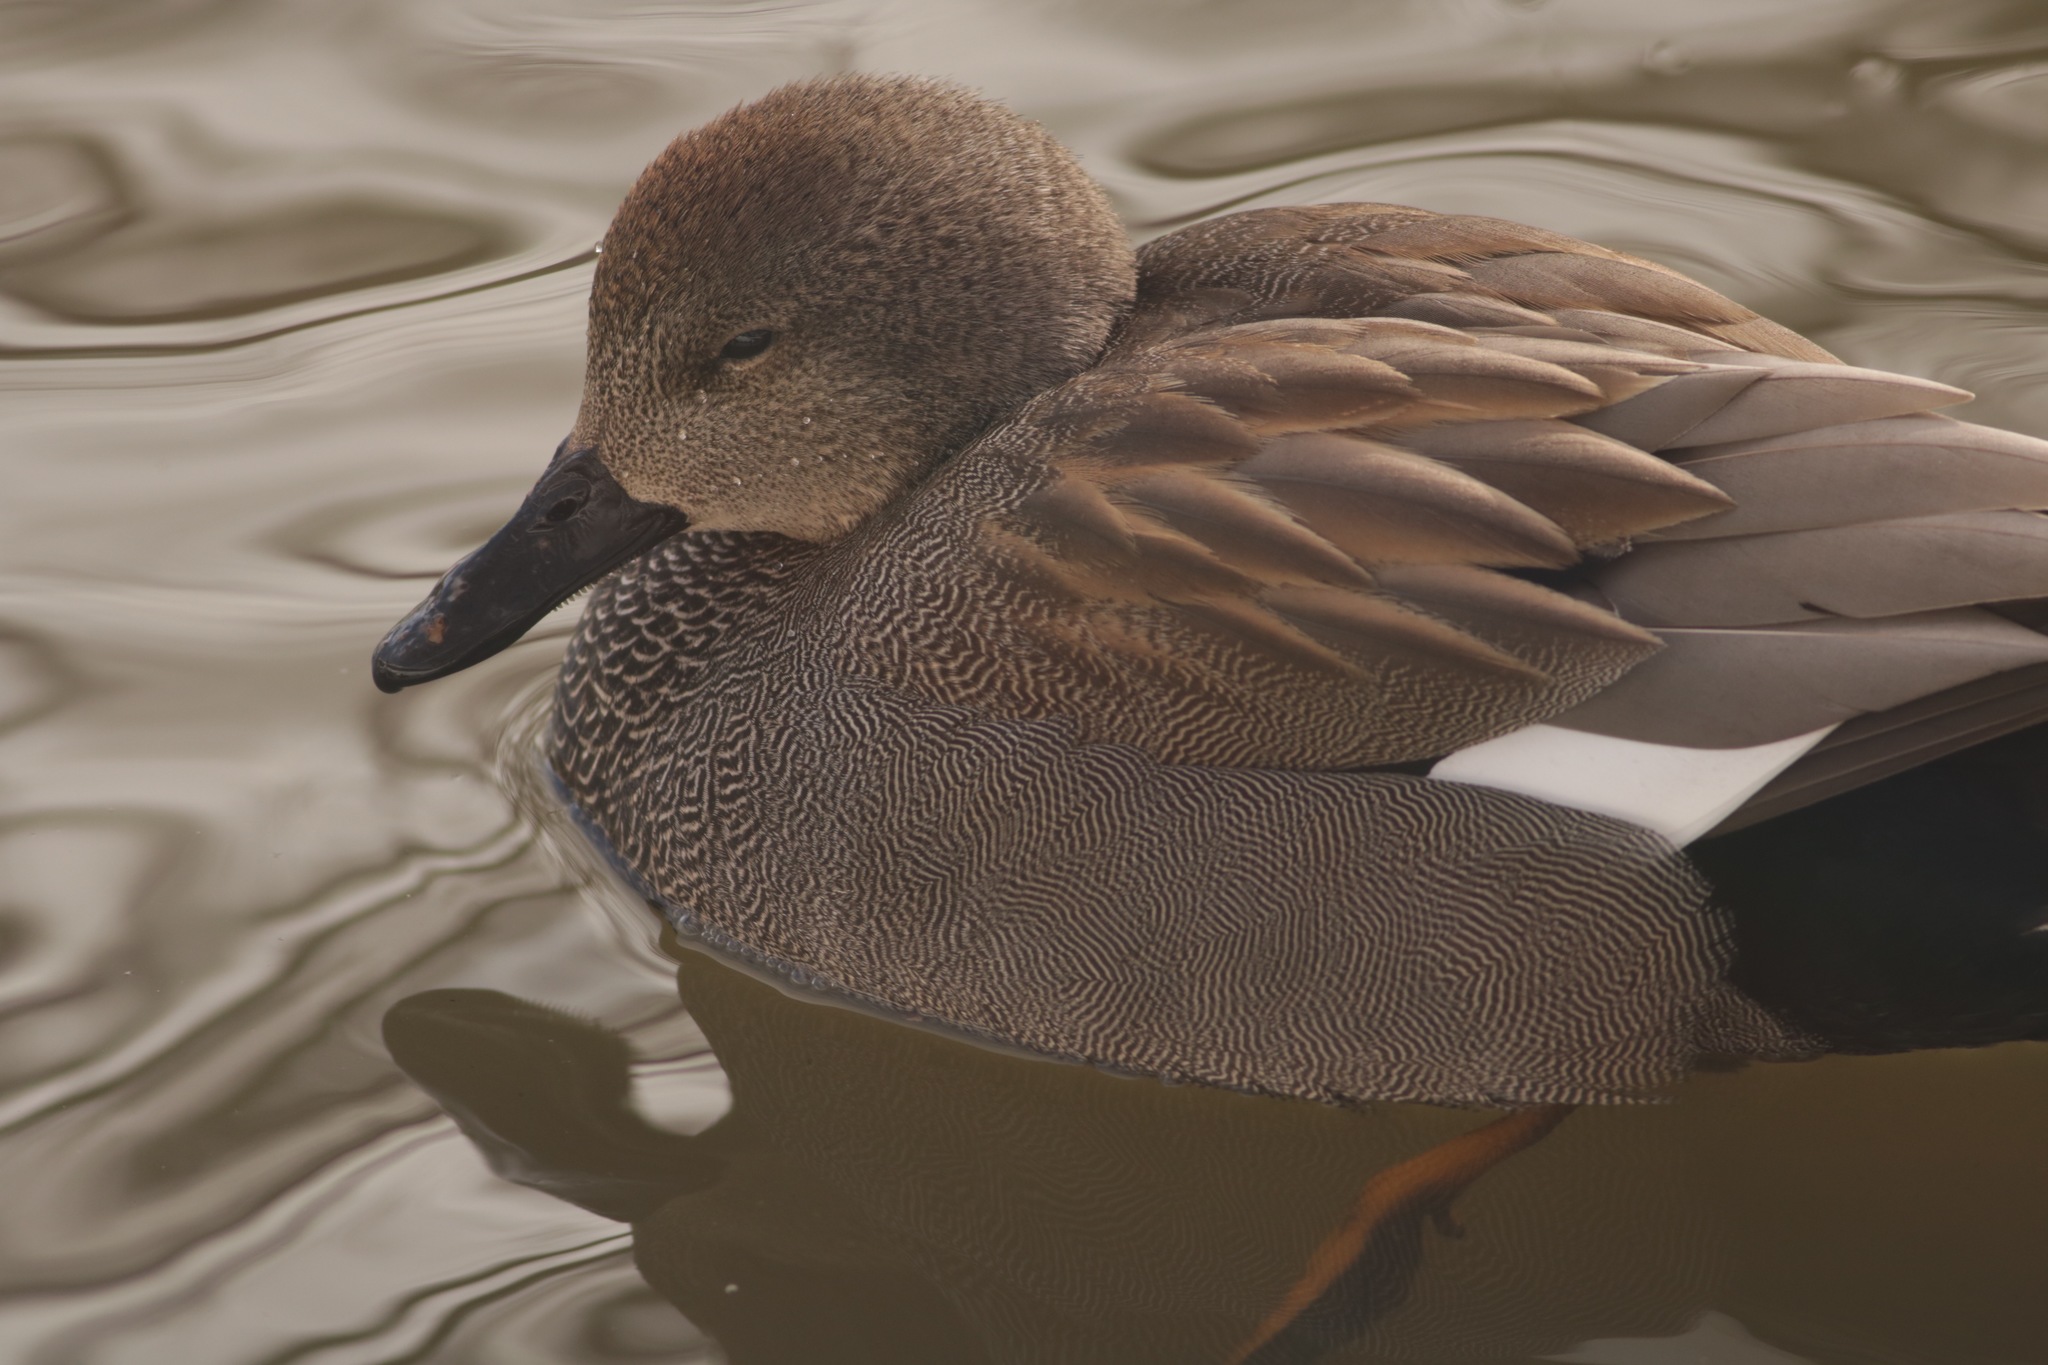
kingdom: Animalia
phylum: Chordata
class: Aves
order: Anseriformes
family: Anatidae
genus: Mareca
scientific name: Mareca strepera
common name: Gadwall
